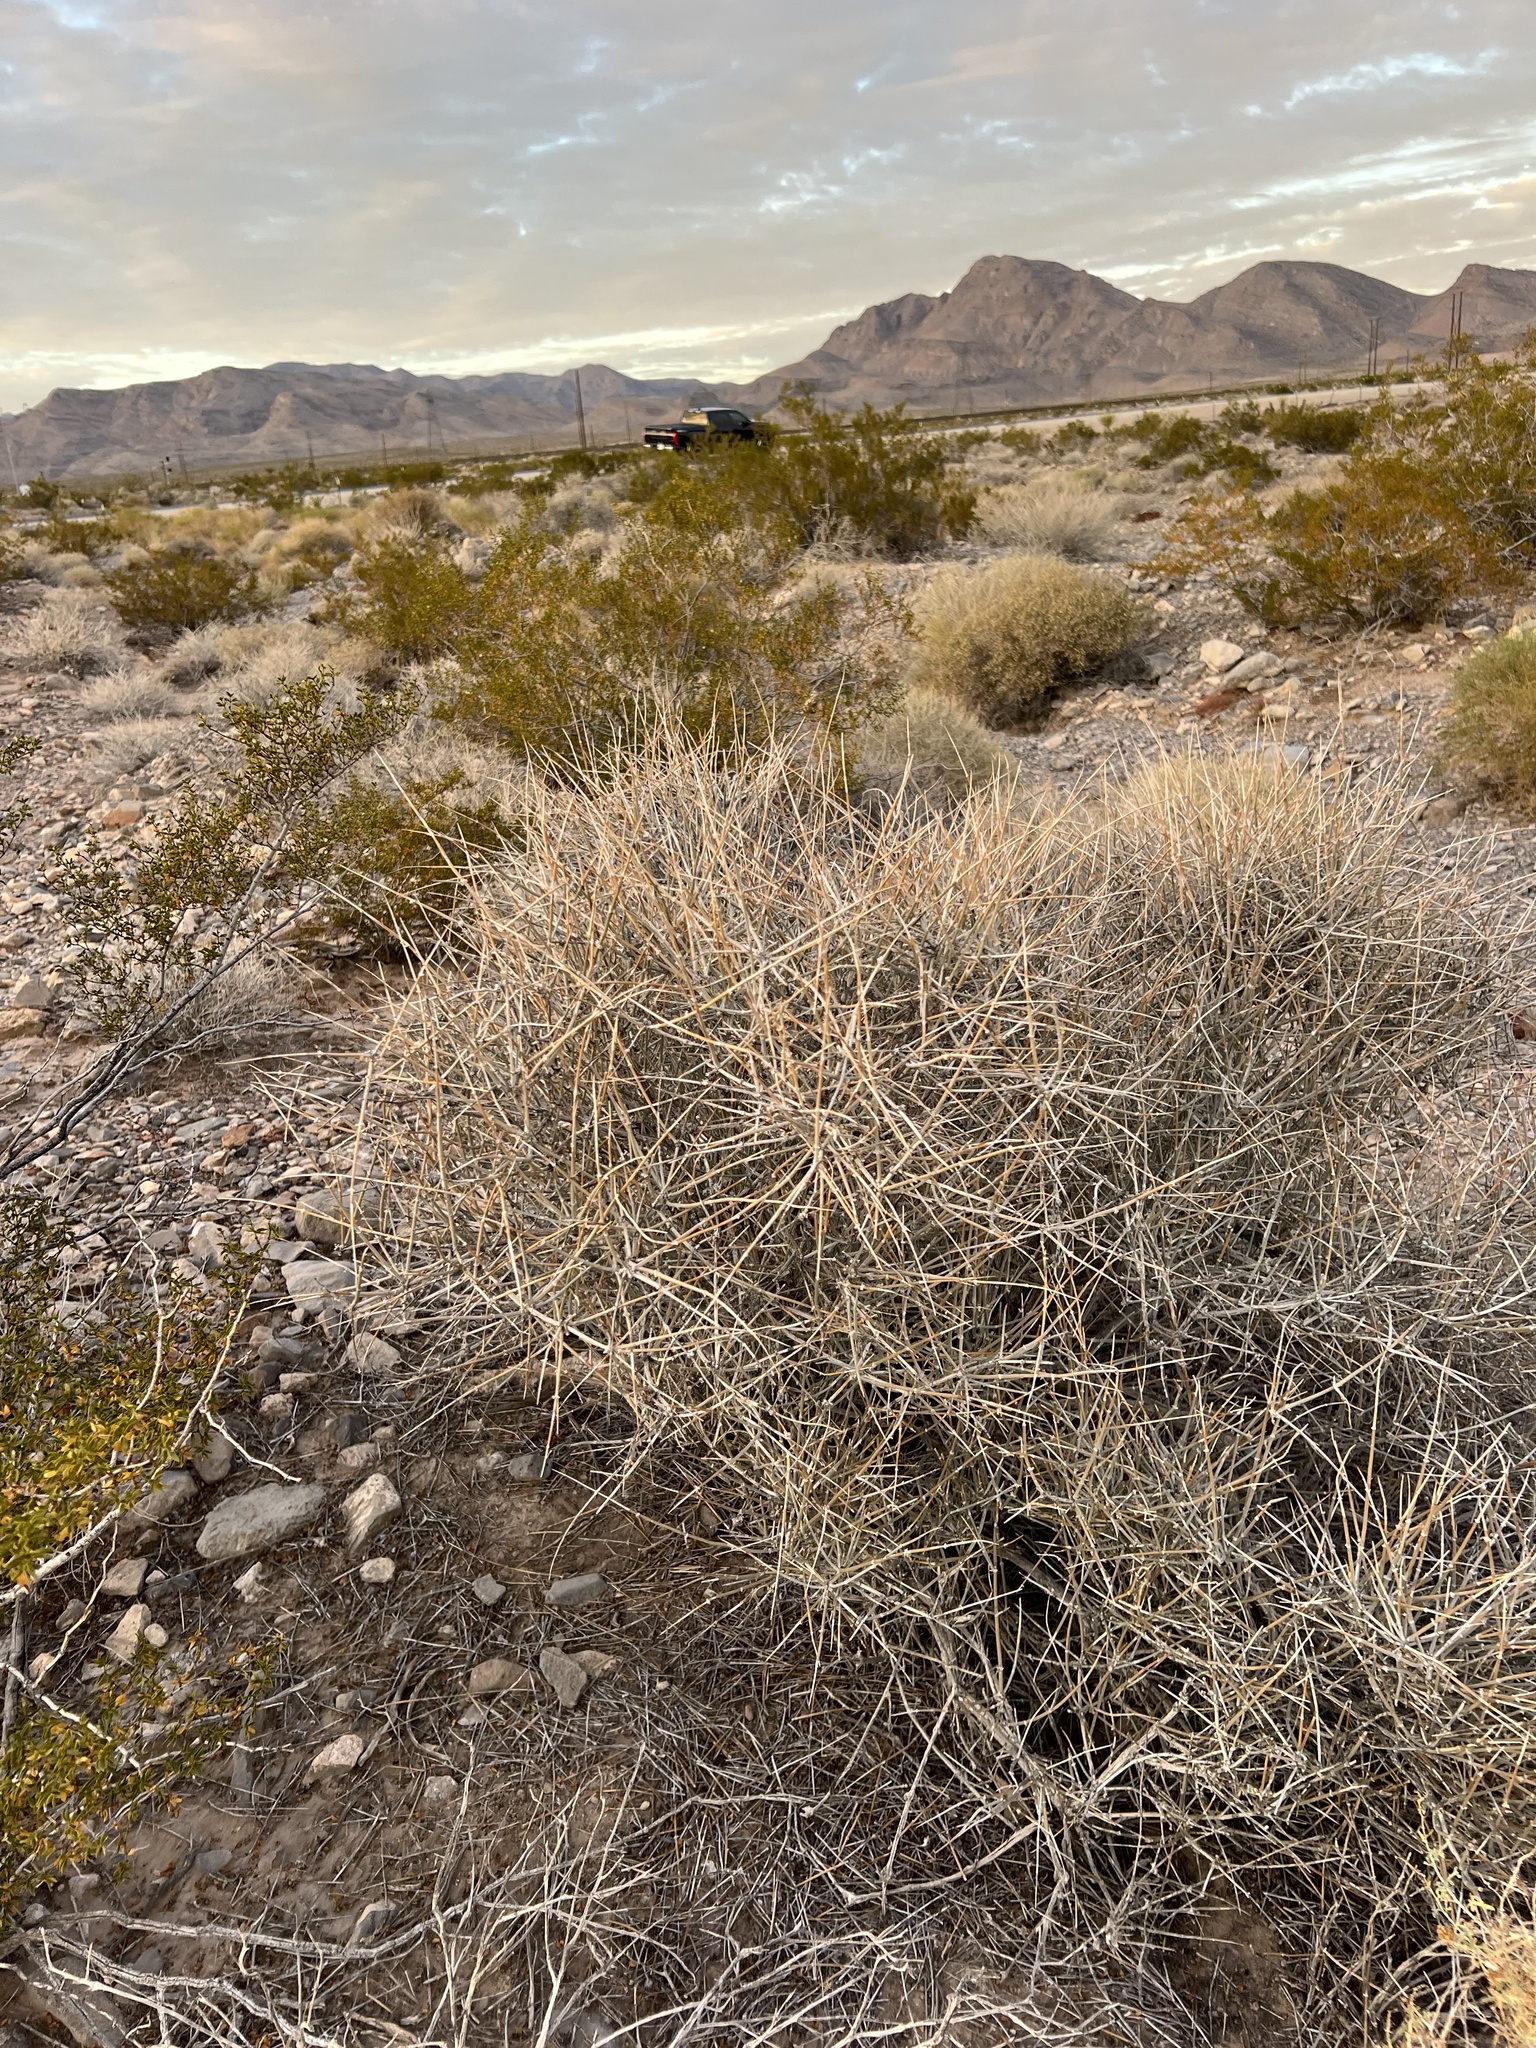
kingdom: Plantae
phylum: Tracheophyta
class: Gnetopsida
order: Ephedrales
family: Ephedraceae
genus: Ephedra
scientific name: Ephedra nevadensis
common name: Gray ephedra
